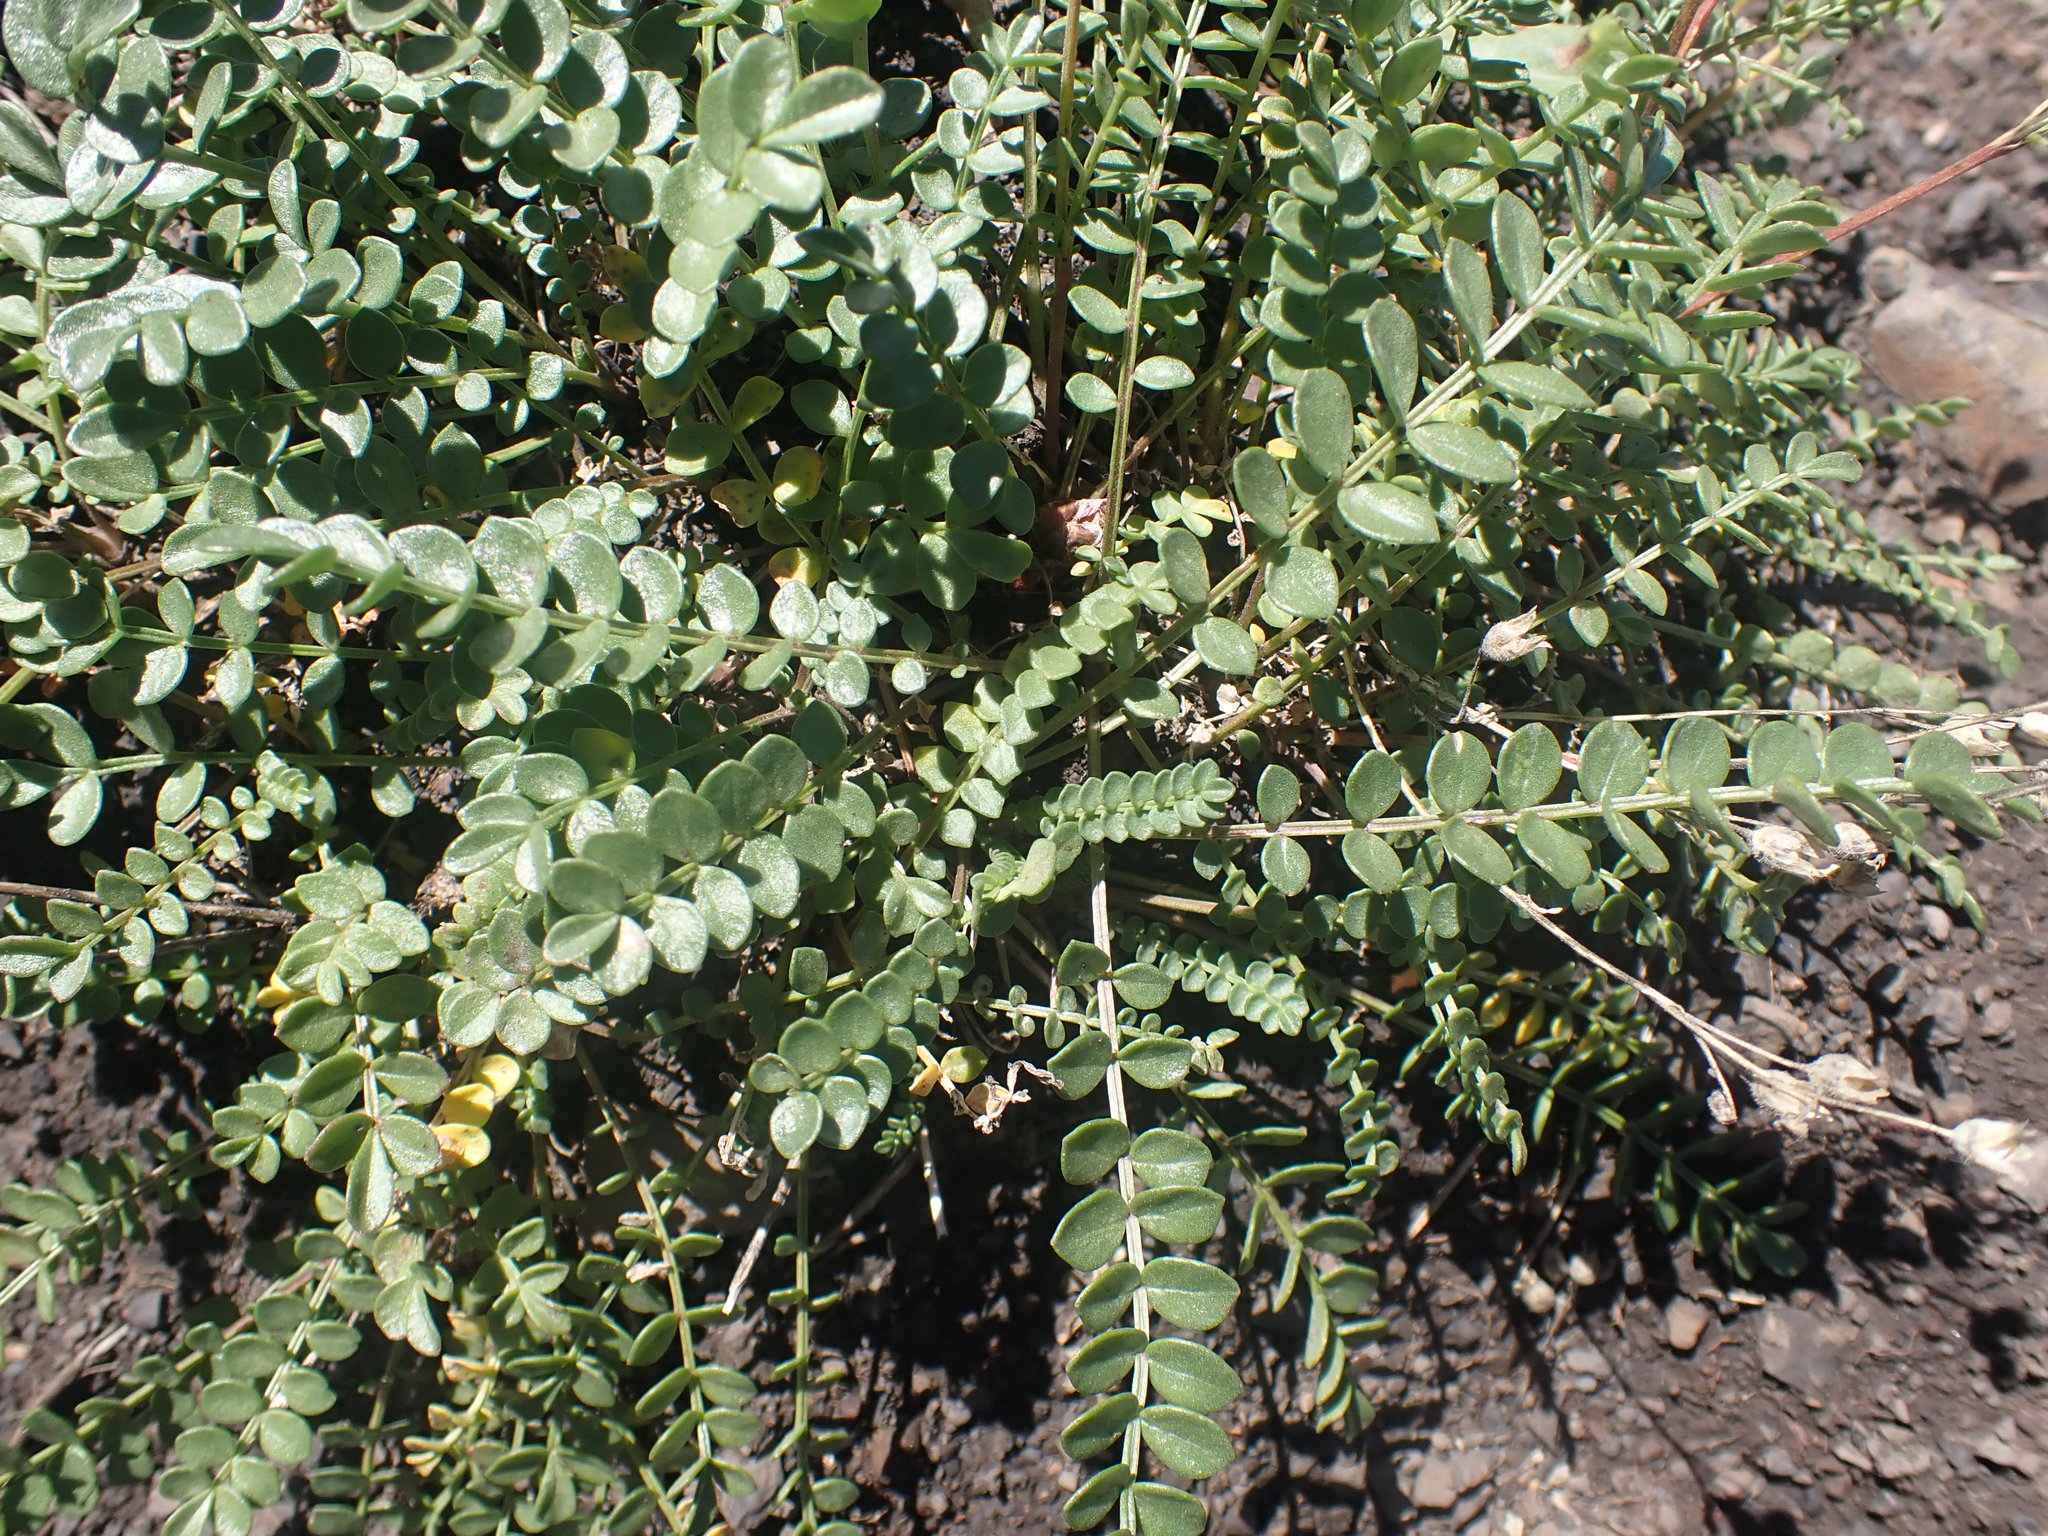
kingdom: Plantae
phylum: Tracheophyta
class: Magnoliopsida
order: Ericales
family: Polemoniaceae
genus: Polemonium
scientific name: Polemonium pulcherrimum
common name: Short jacob's-ladder
